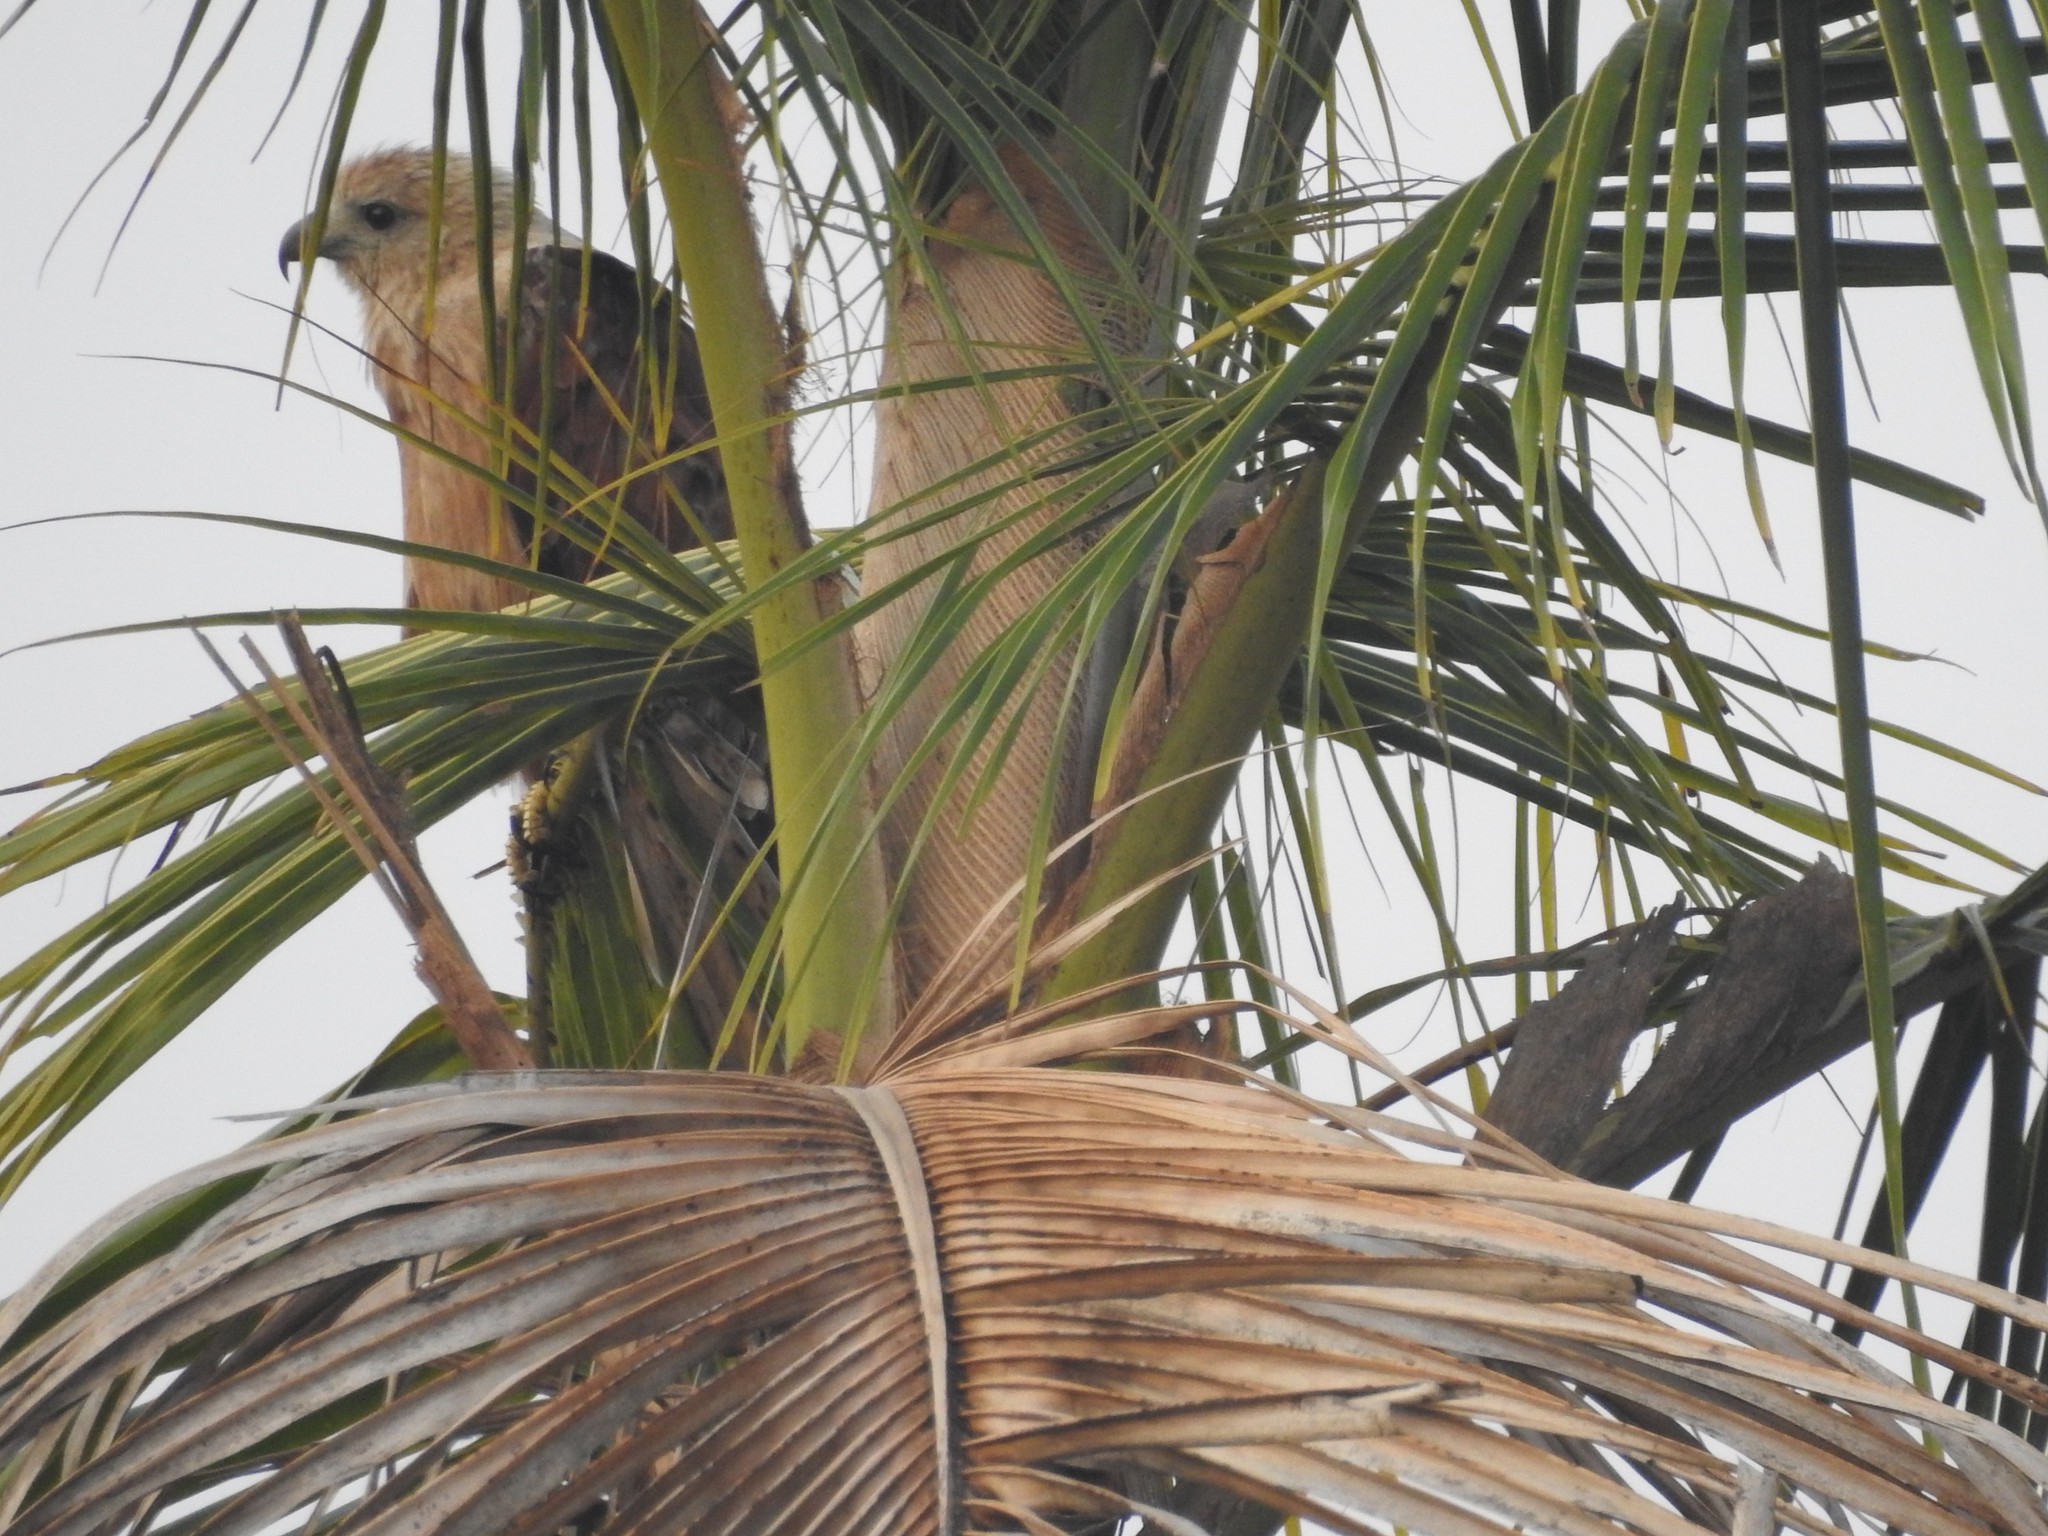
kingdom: Animalia
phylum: Chordata
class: Aves
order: Accipitriformes
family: Accipitridae
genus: Haliastur
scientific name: Haliastur indus
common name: Brahminy kite
